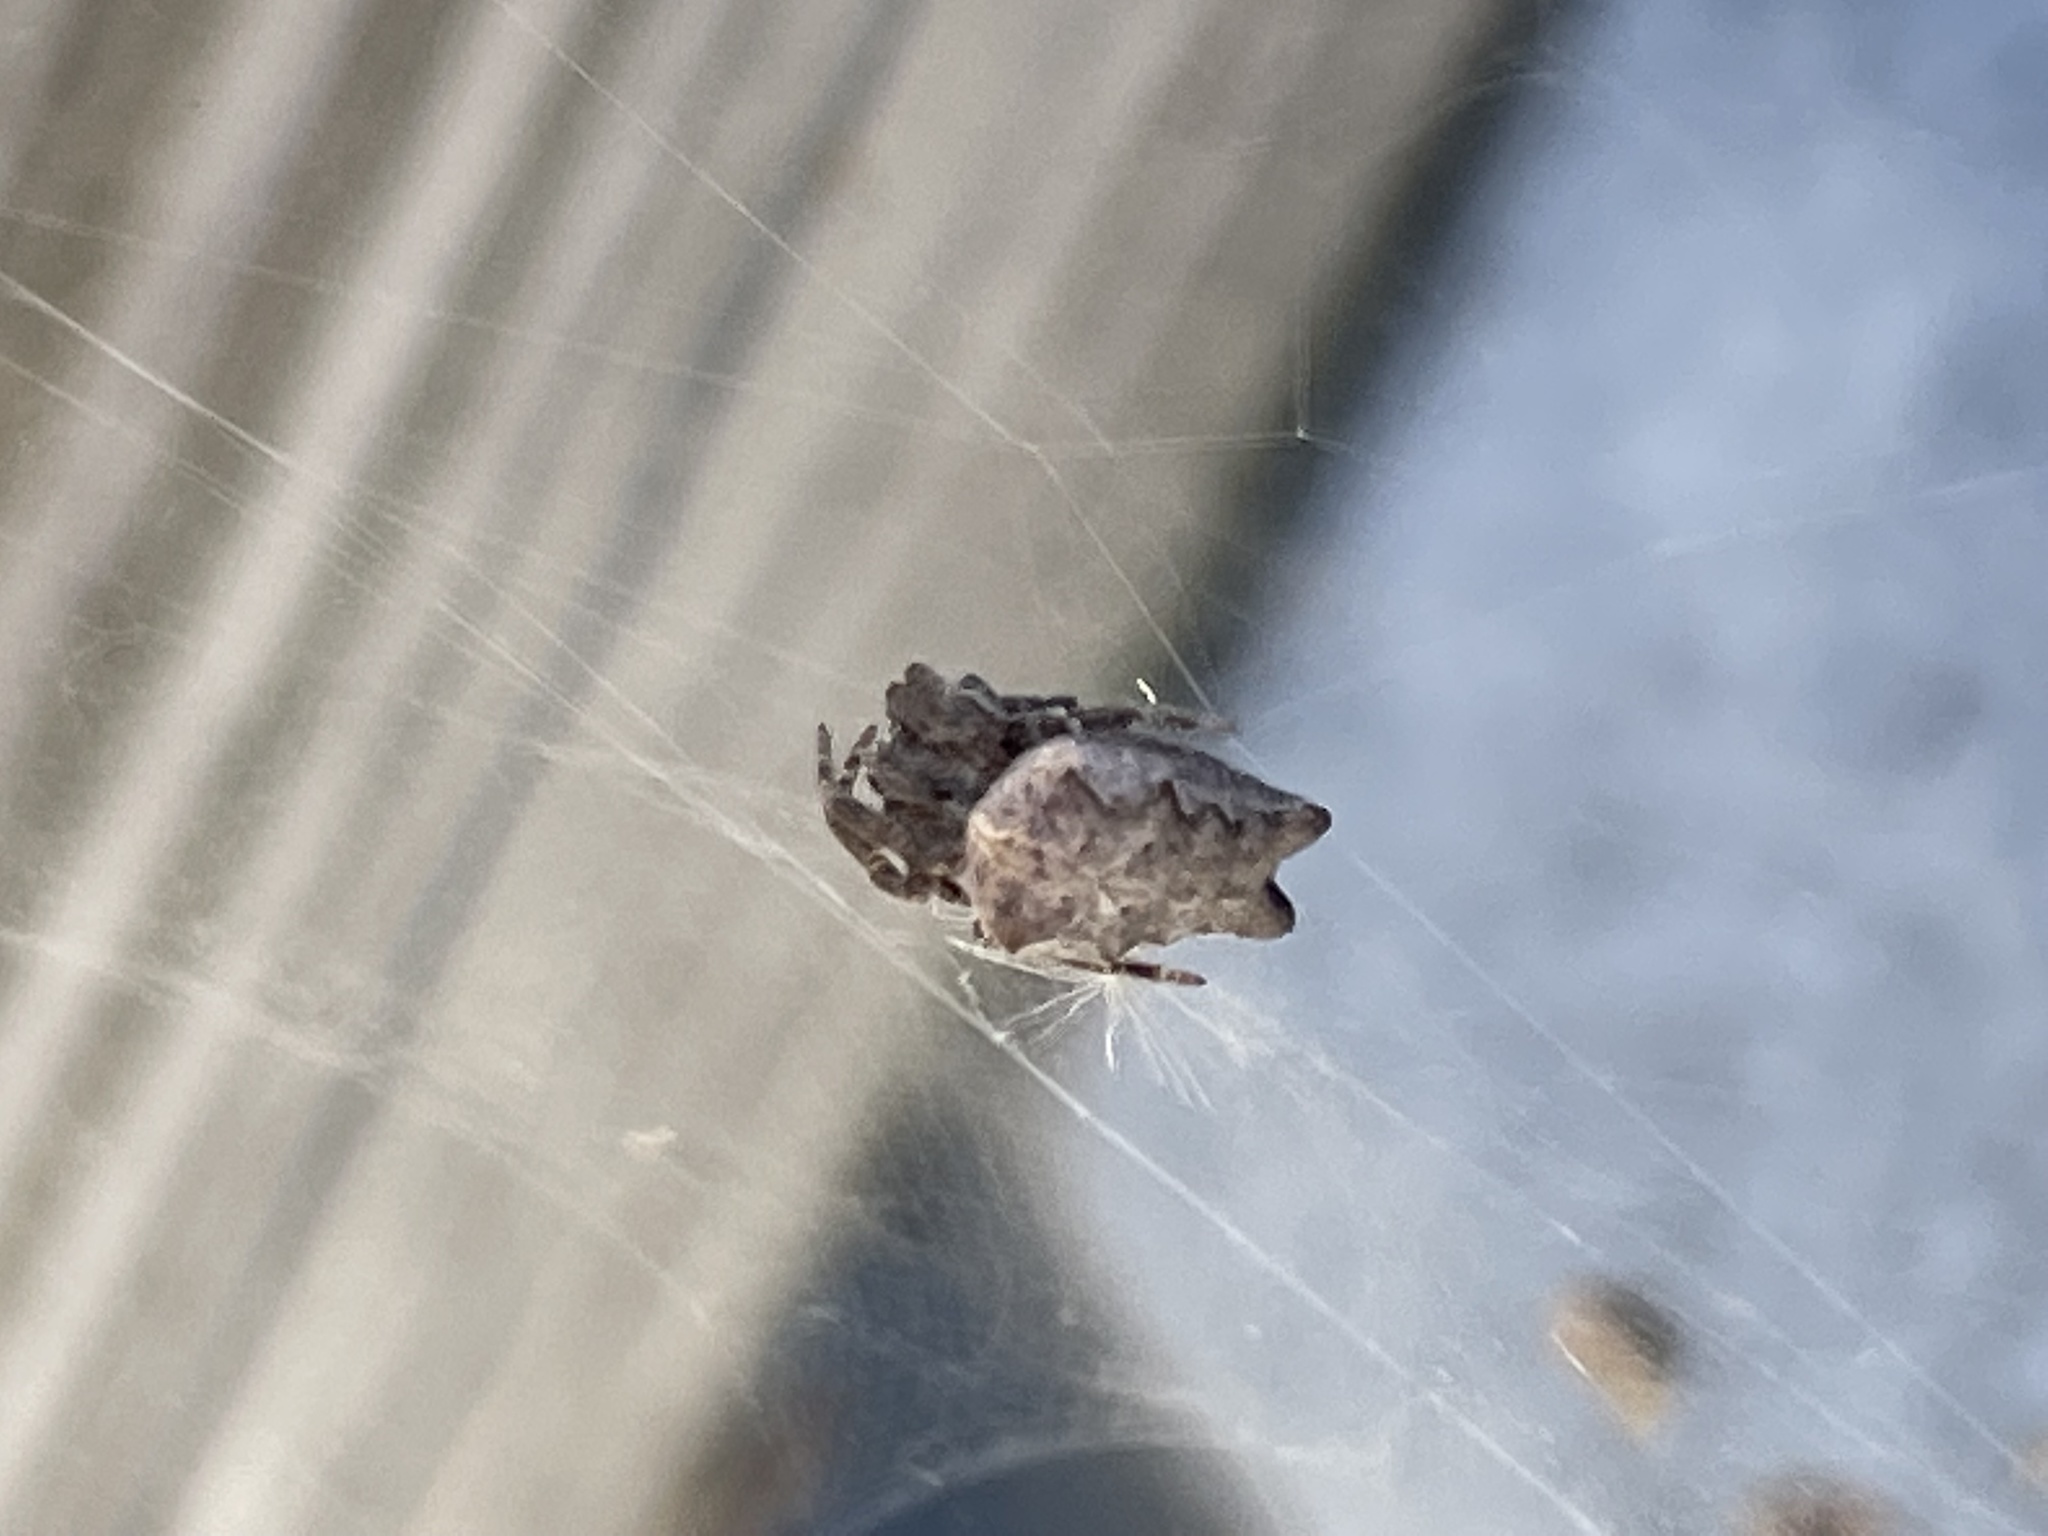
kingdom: Animalia
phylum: Arthropoda
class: Arachnida
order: Araneae
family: Araneidae
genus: Cyrtophora
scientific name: Cyrtophora citricola
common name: Orb weavers
